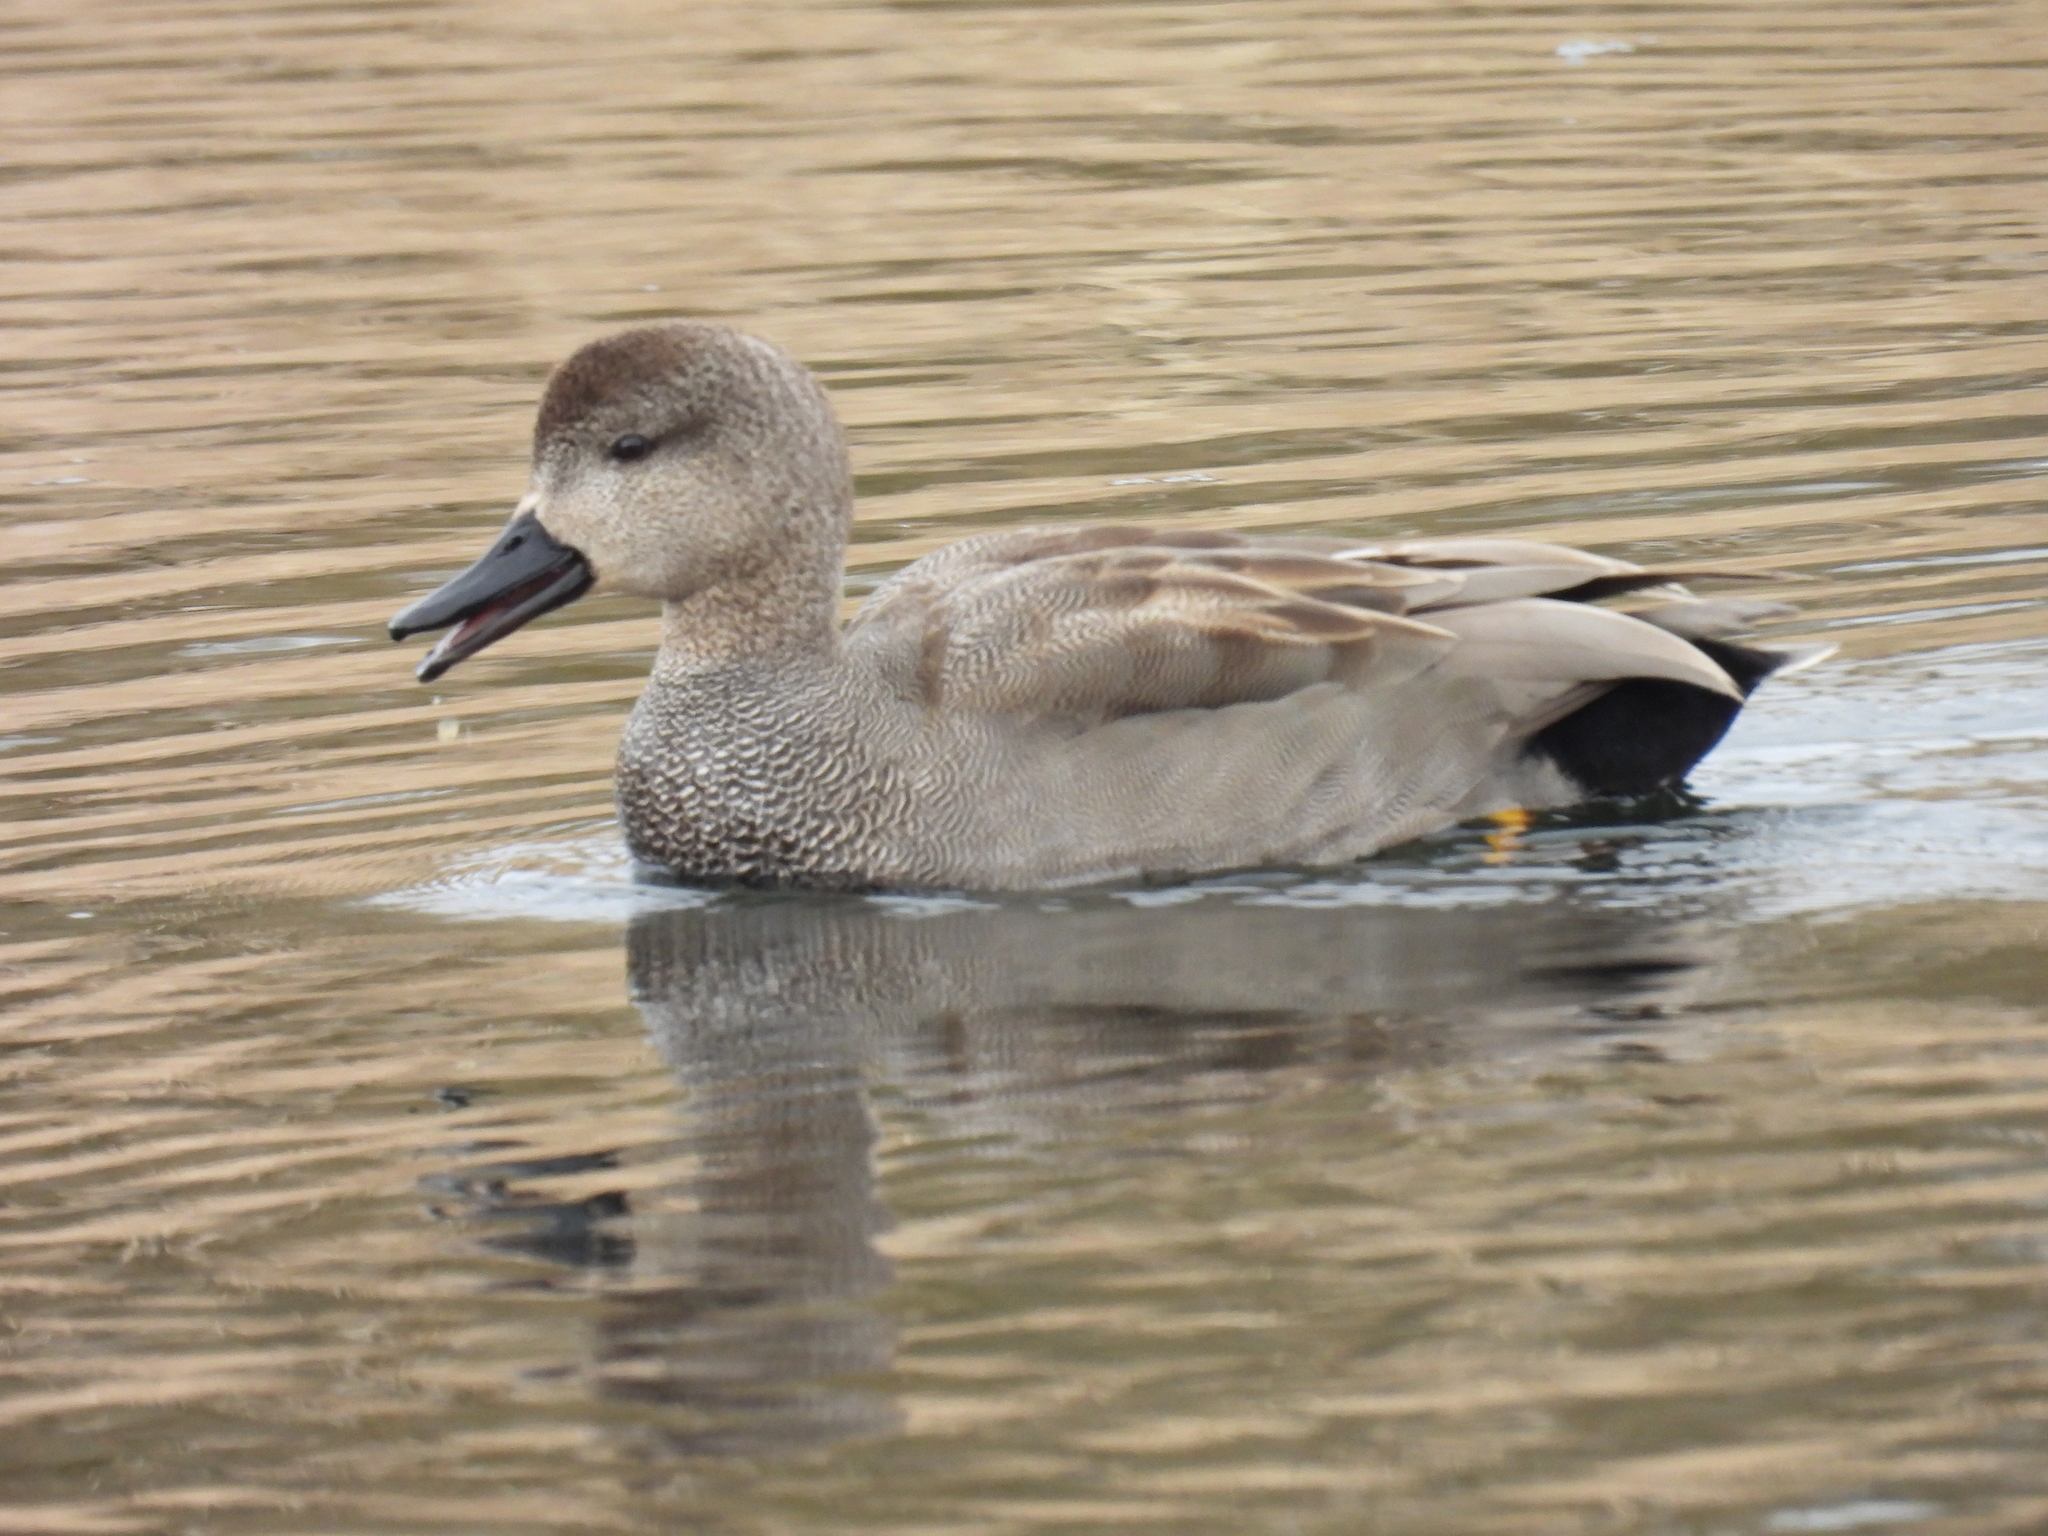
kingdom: Animalia
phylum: Chordata
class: Aves
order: Anseriformes
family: Anatidae
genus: Mareca
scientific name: Mareca strepera
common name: Gadwall
